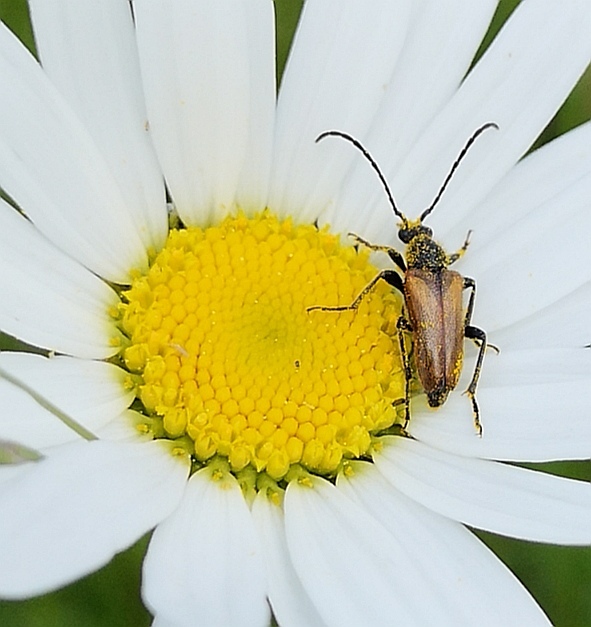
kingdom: Animalia
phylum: Arthropoda
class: Insecta
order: Coleoptera
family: Cerambycidae
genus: Pseudovadonia
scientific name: Pseudovadonia livida
